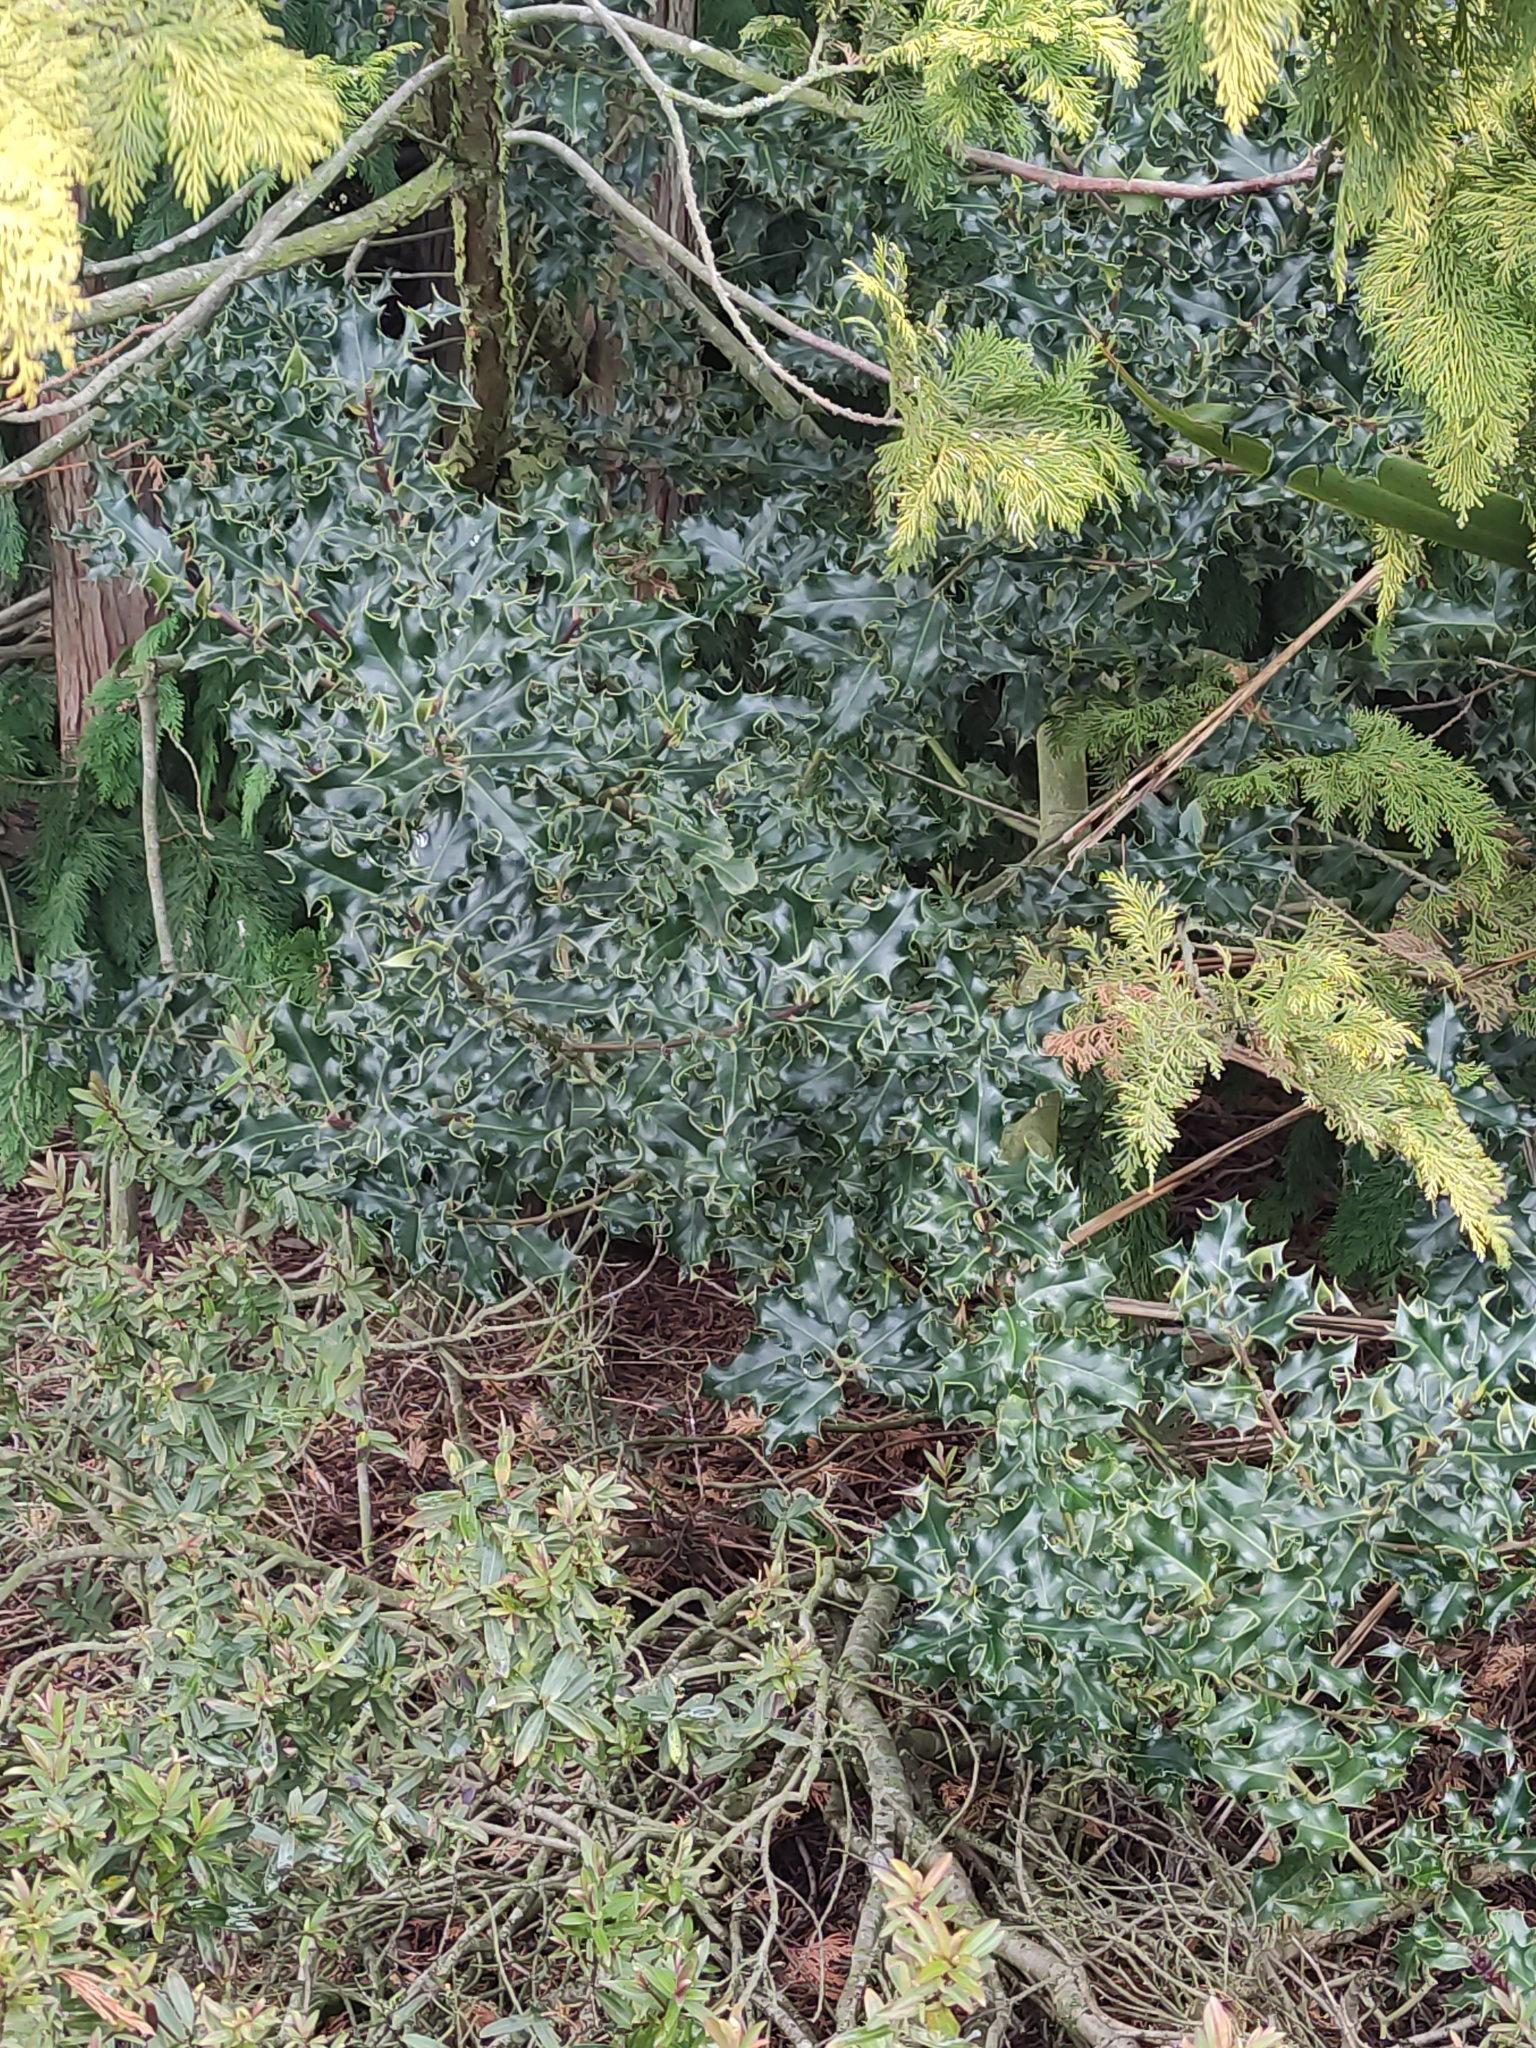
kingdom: Plantae
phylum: Tracheophyta
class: Magnoliopsida
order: Aquifoliales
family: Aquifoliaceae
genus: Ilex
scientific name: Ilex aquifolium
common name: English holly
